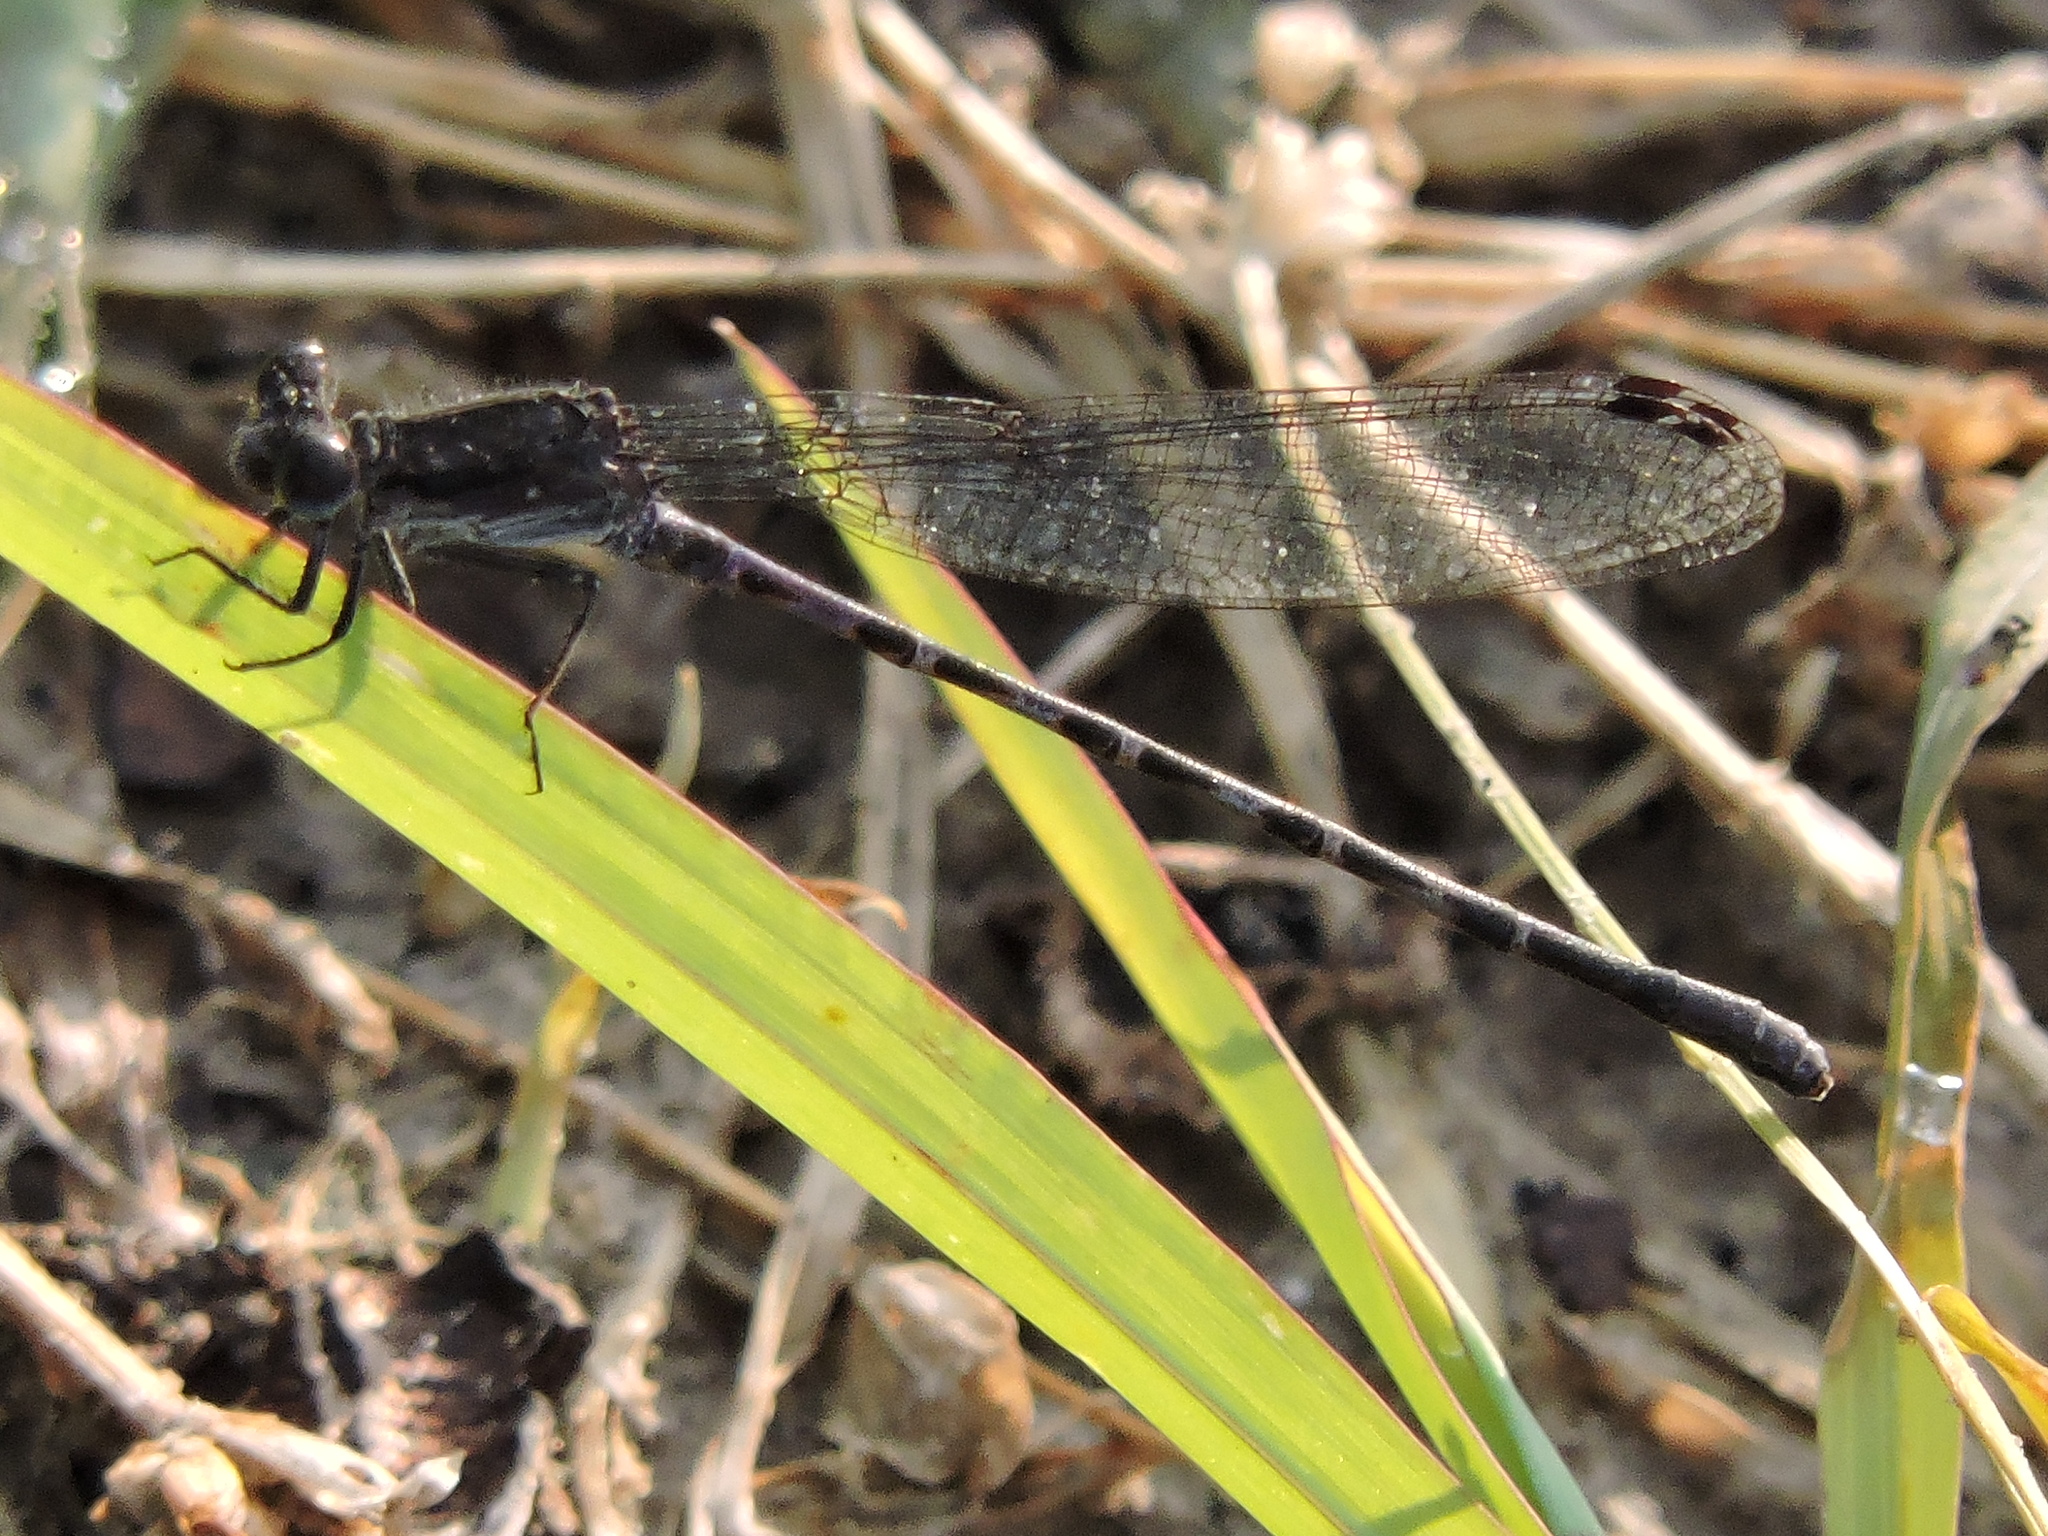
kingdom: Animalia
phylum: Arthropoda
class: Insecta
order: Odonata
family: Coenagrionidae
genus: Argia
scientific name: Argia immunda
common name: Kiowa dancer
